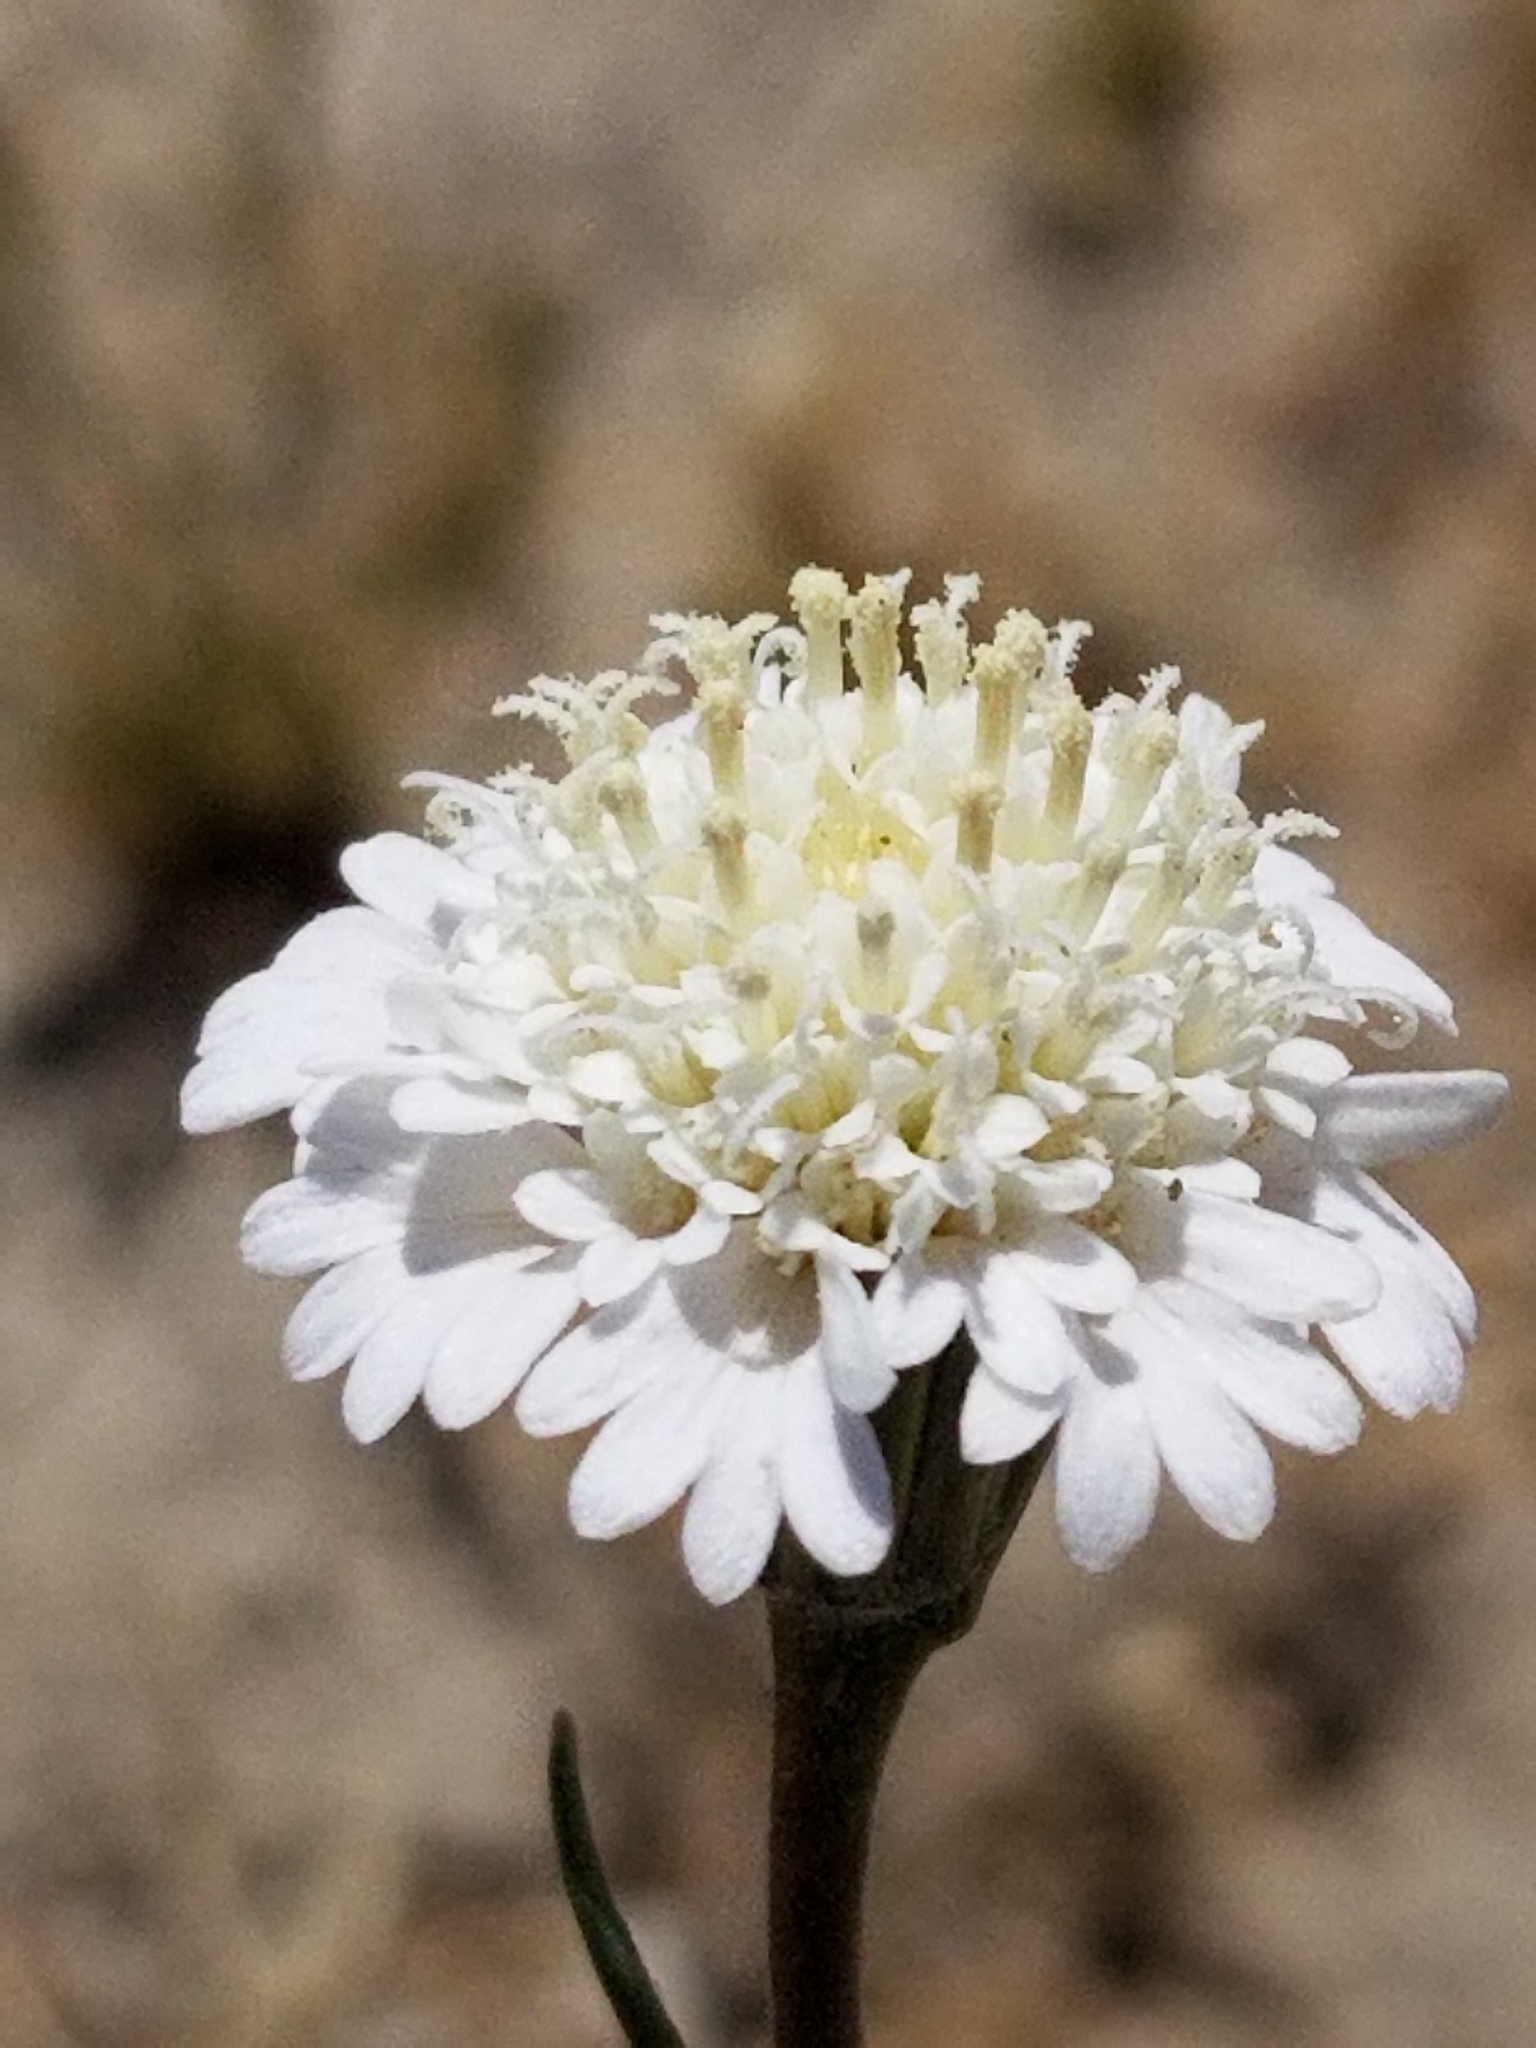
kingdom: Plantae
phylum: Tracheophyta
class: Magnoliopsida
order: Asterales
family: Asteraceae
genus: Chaenactis
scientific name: Chaenactis fremontii
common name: Fremont pincushion
